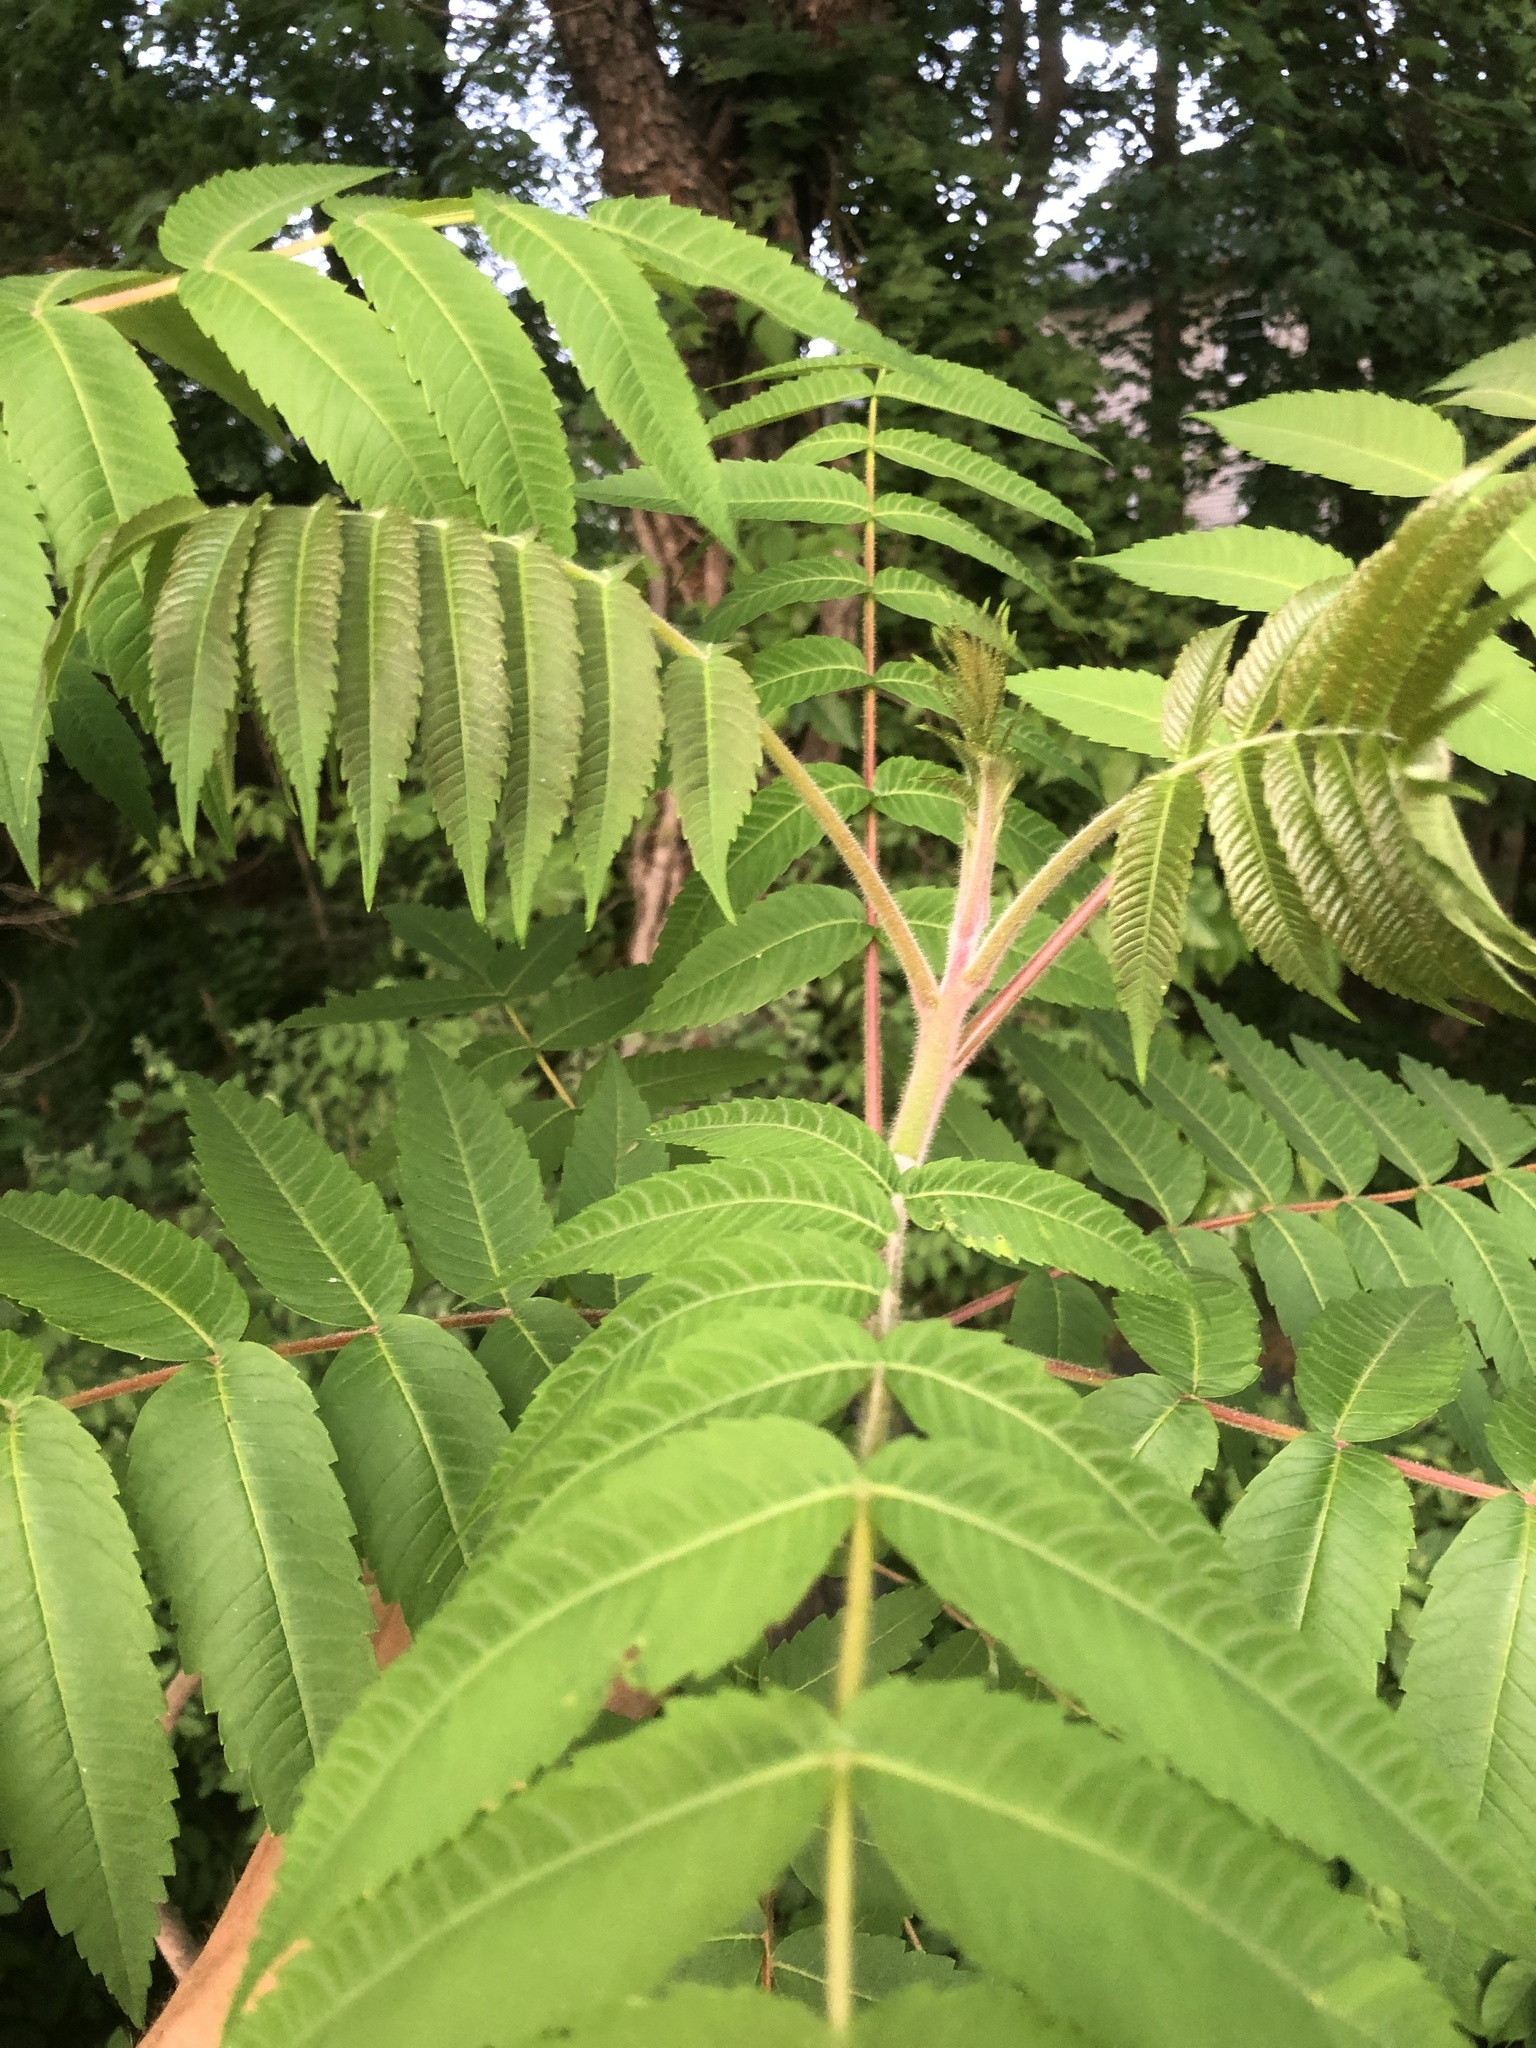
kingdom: Plantae
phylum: Tracheophyta
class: Magnoliopsida
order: Sapindales
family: Anacardiaceae
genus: Rhus
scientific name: Rhus typhina
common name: Staghorn sumac
